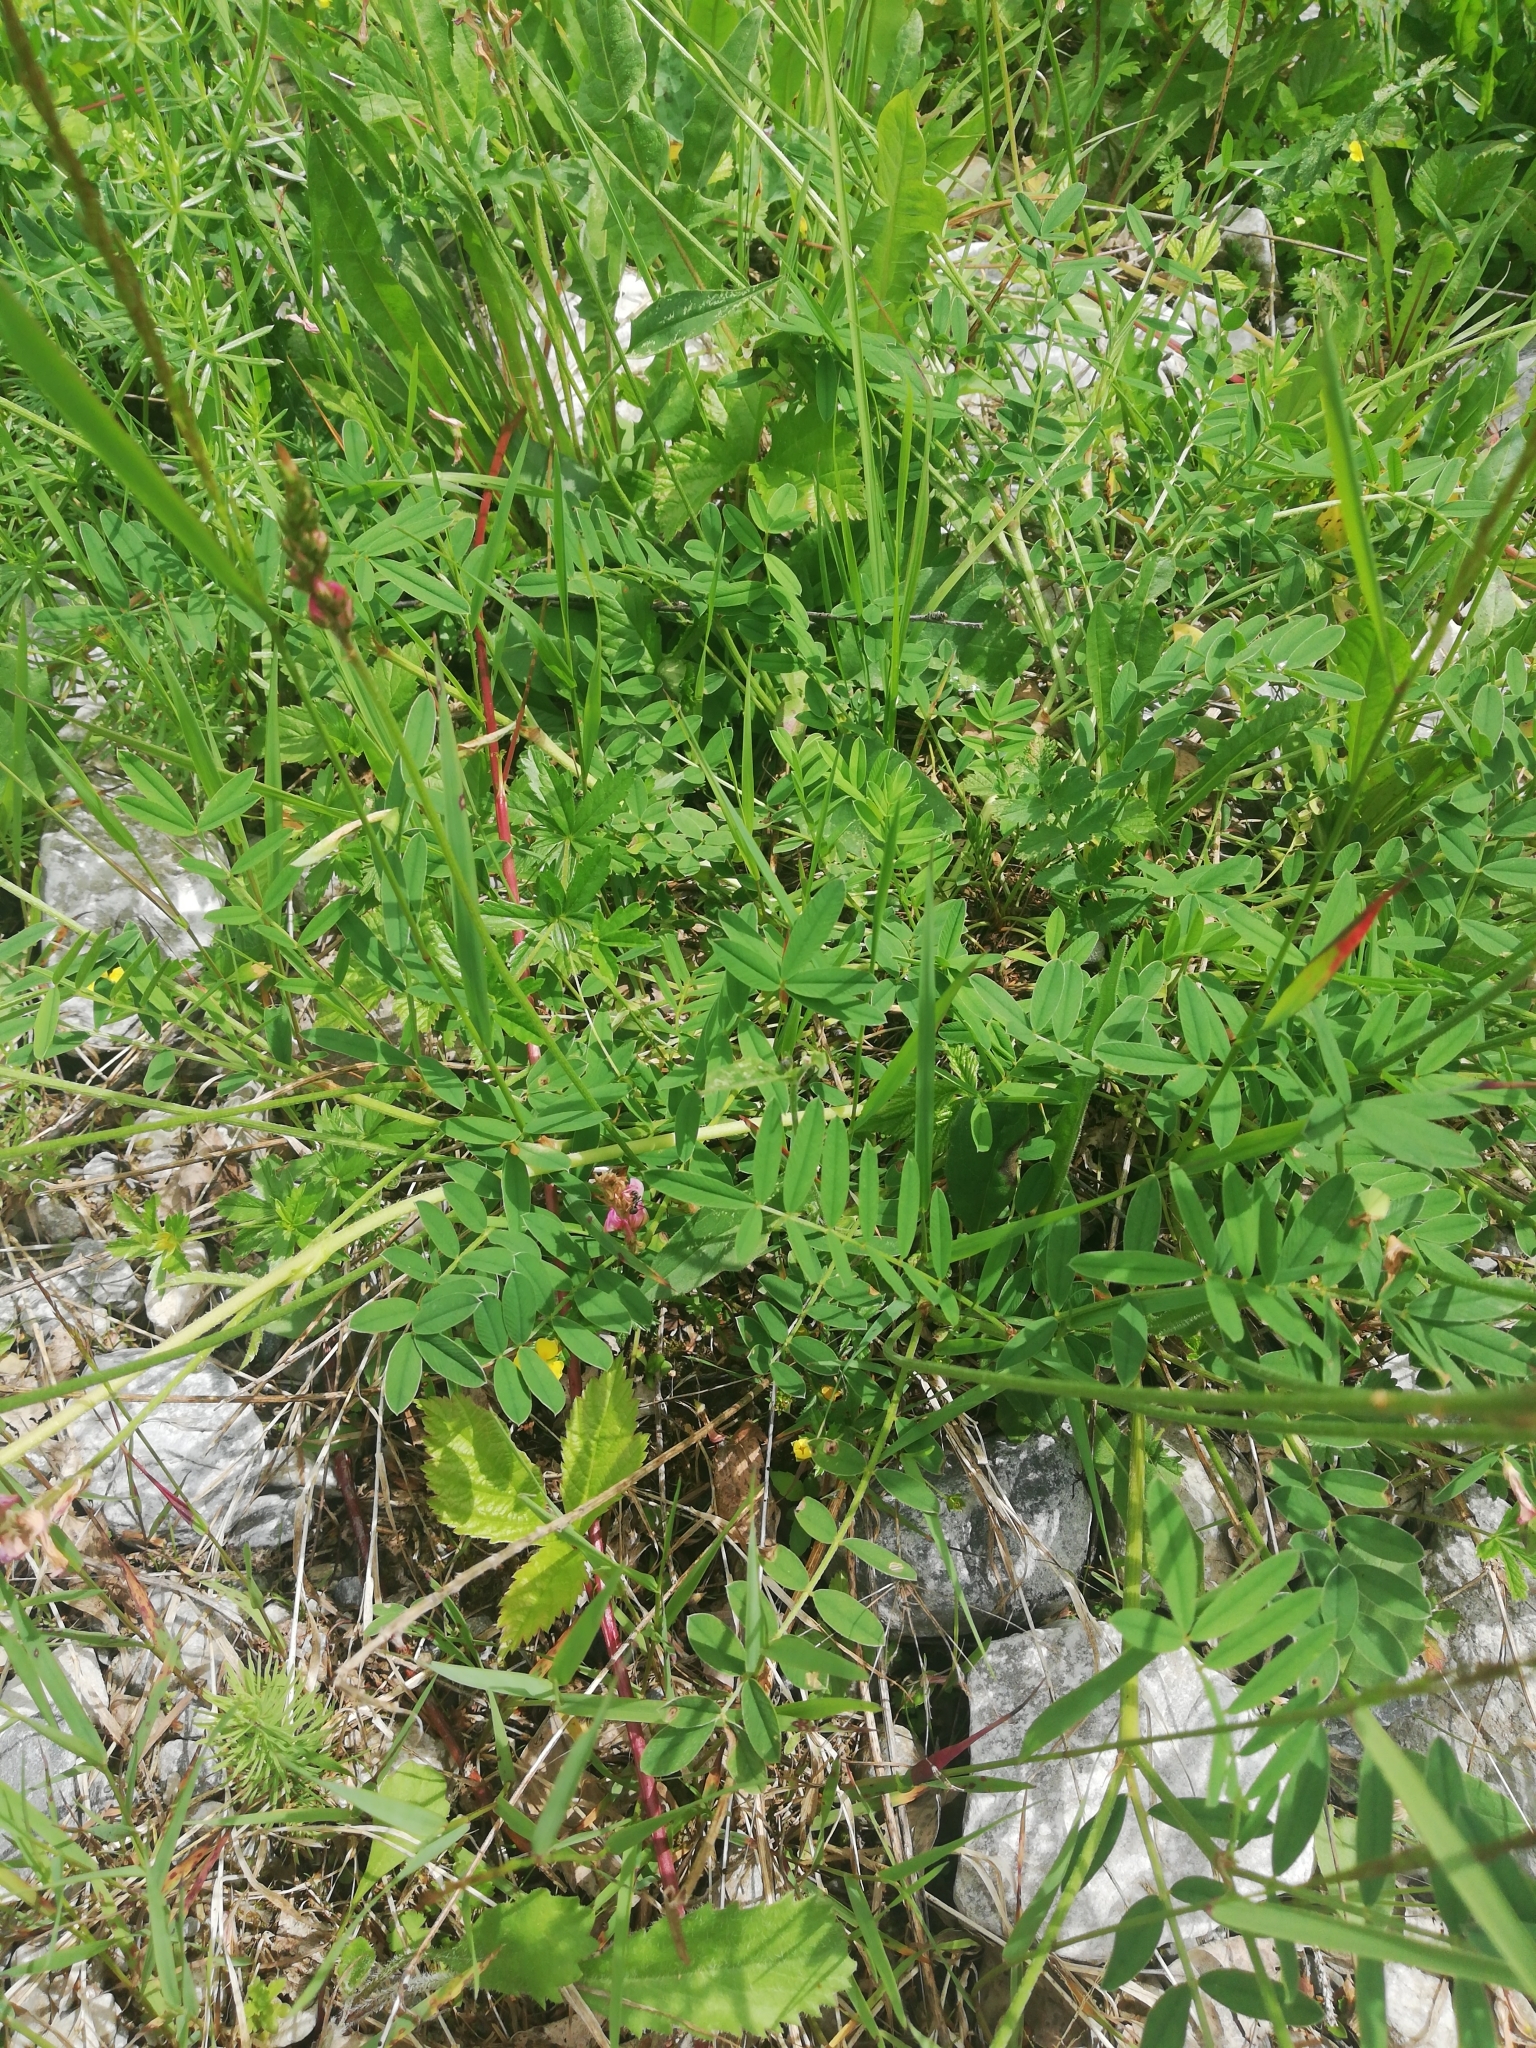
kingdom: Plantae
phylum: Tracheophyta
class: Magnoliopsida
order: Fabales
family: Fabaceae
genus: Onobrychis
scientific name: Onobrychis viciifolia
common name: Sainfoin
